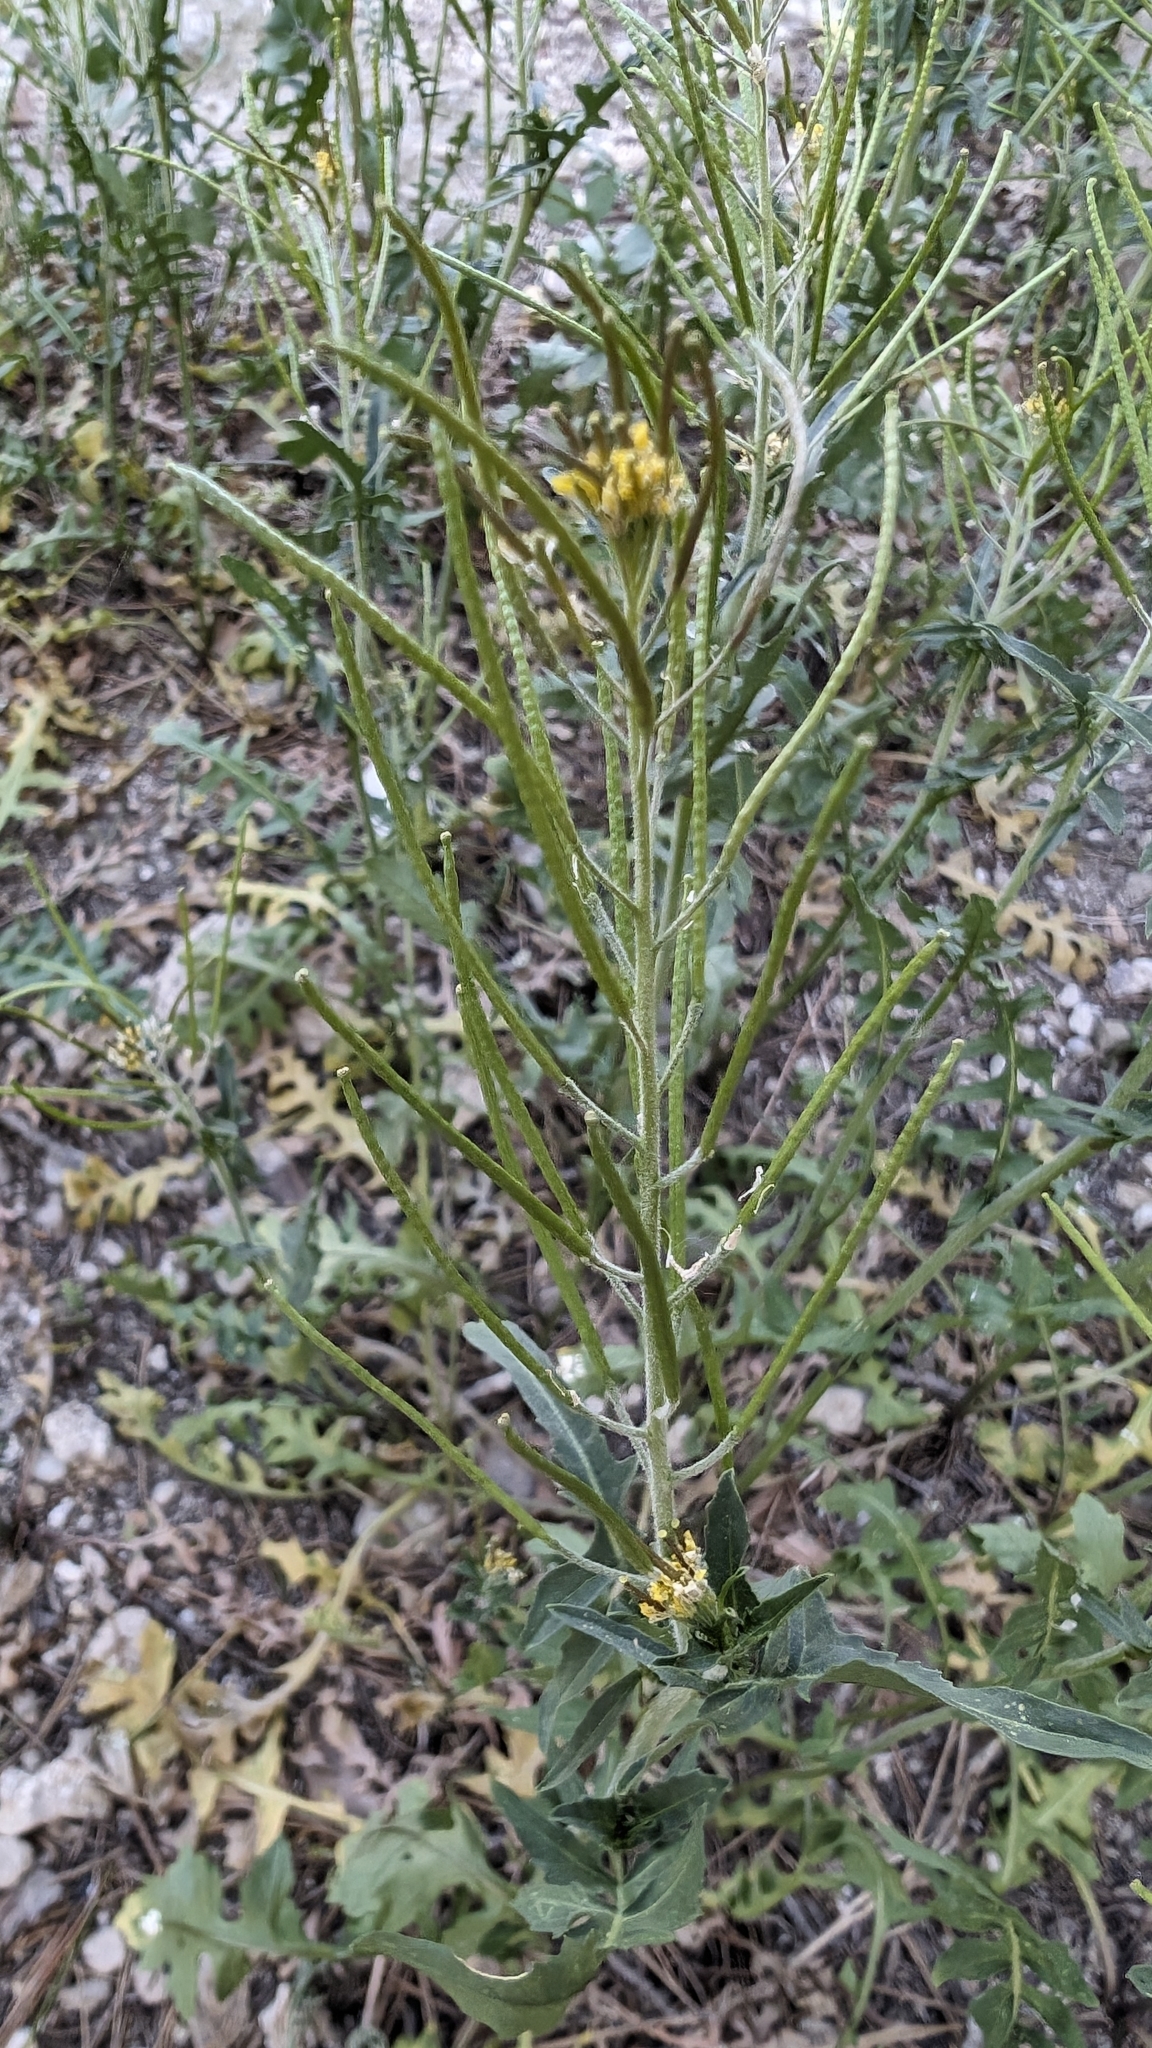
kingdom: Plantae
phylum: Tracheophyta
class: Magnoliopsida
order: Brassicales
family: Brassicaceae
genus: Sisymbrium
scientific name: Sisymbrium irio
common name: London rocket
